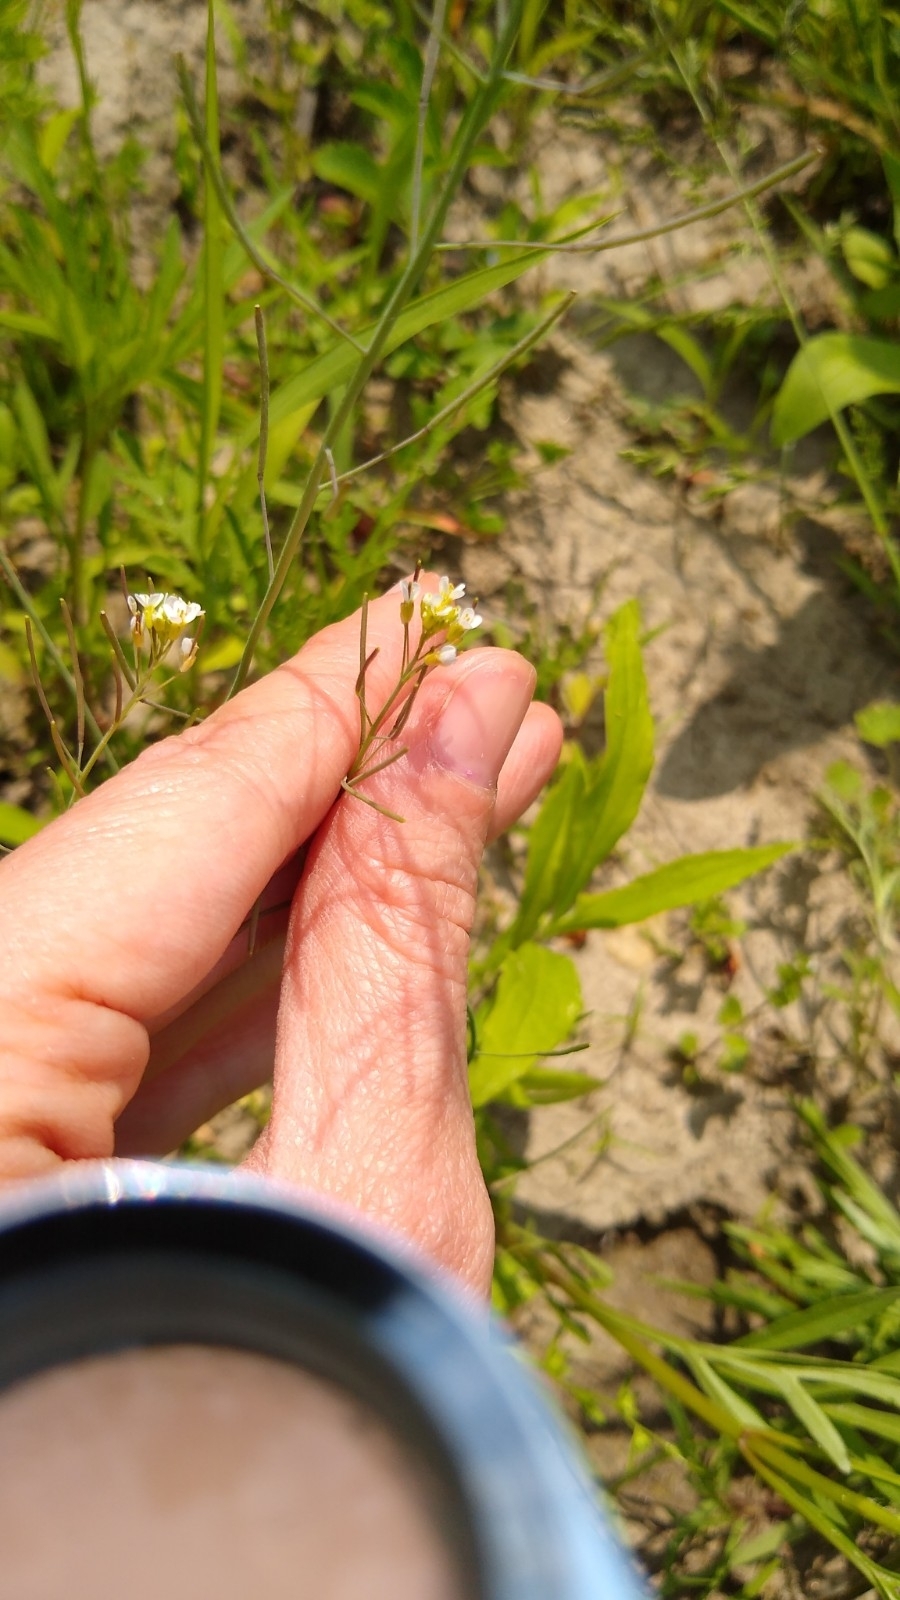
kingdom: Plantae
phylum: Tracheophyta
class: Magnoliopsida
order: Brassicales
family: Brassicaceae
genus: Arabidopsis
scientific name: Arabidopsis thaliana
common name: Thale cress
